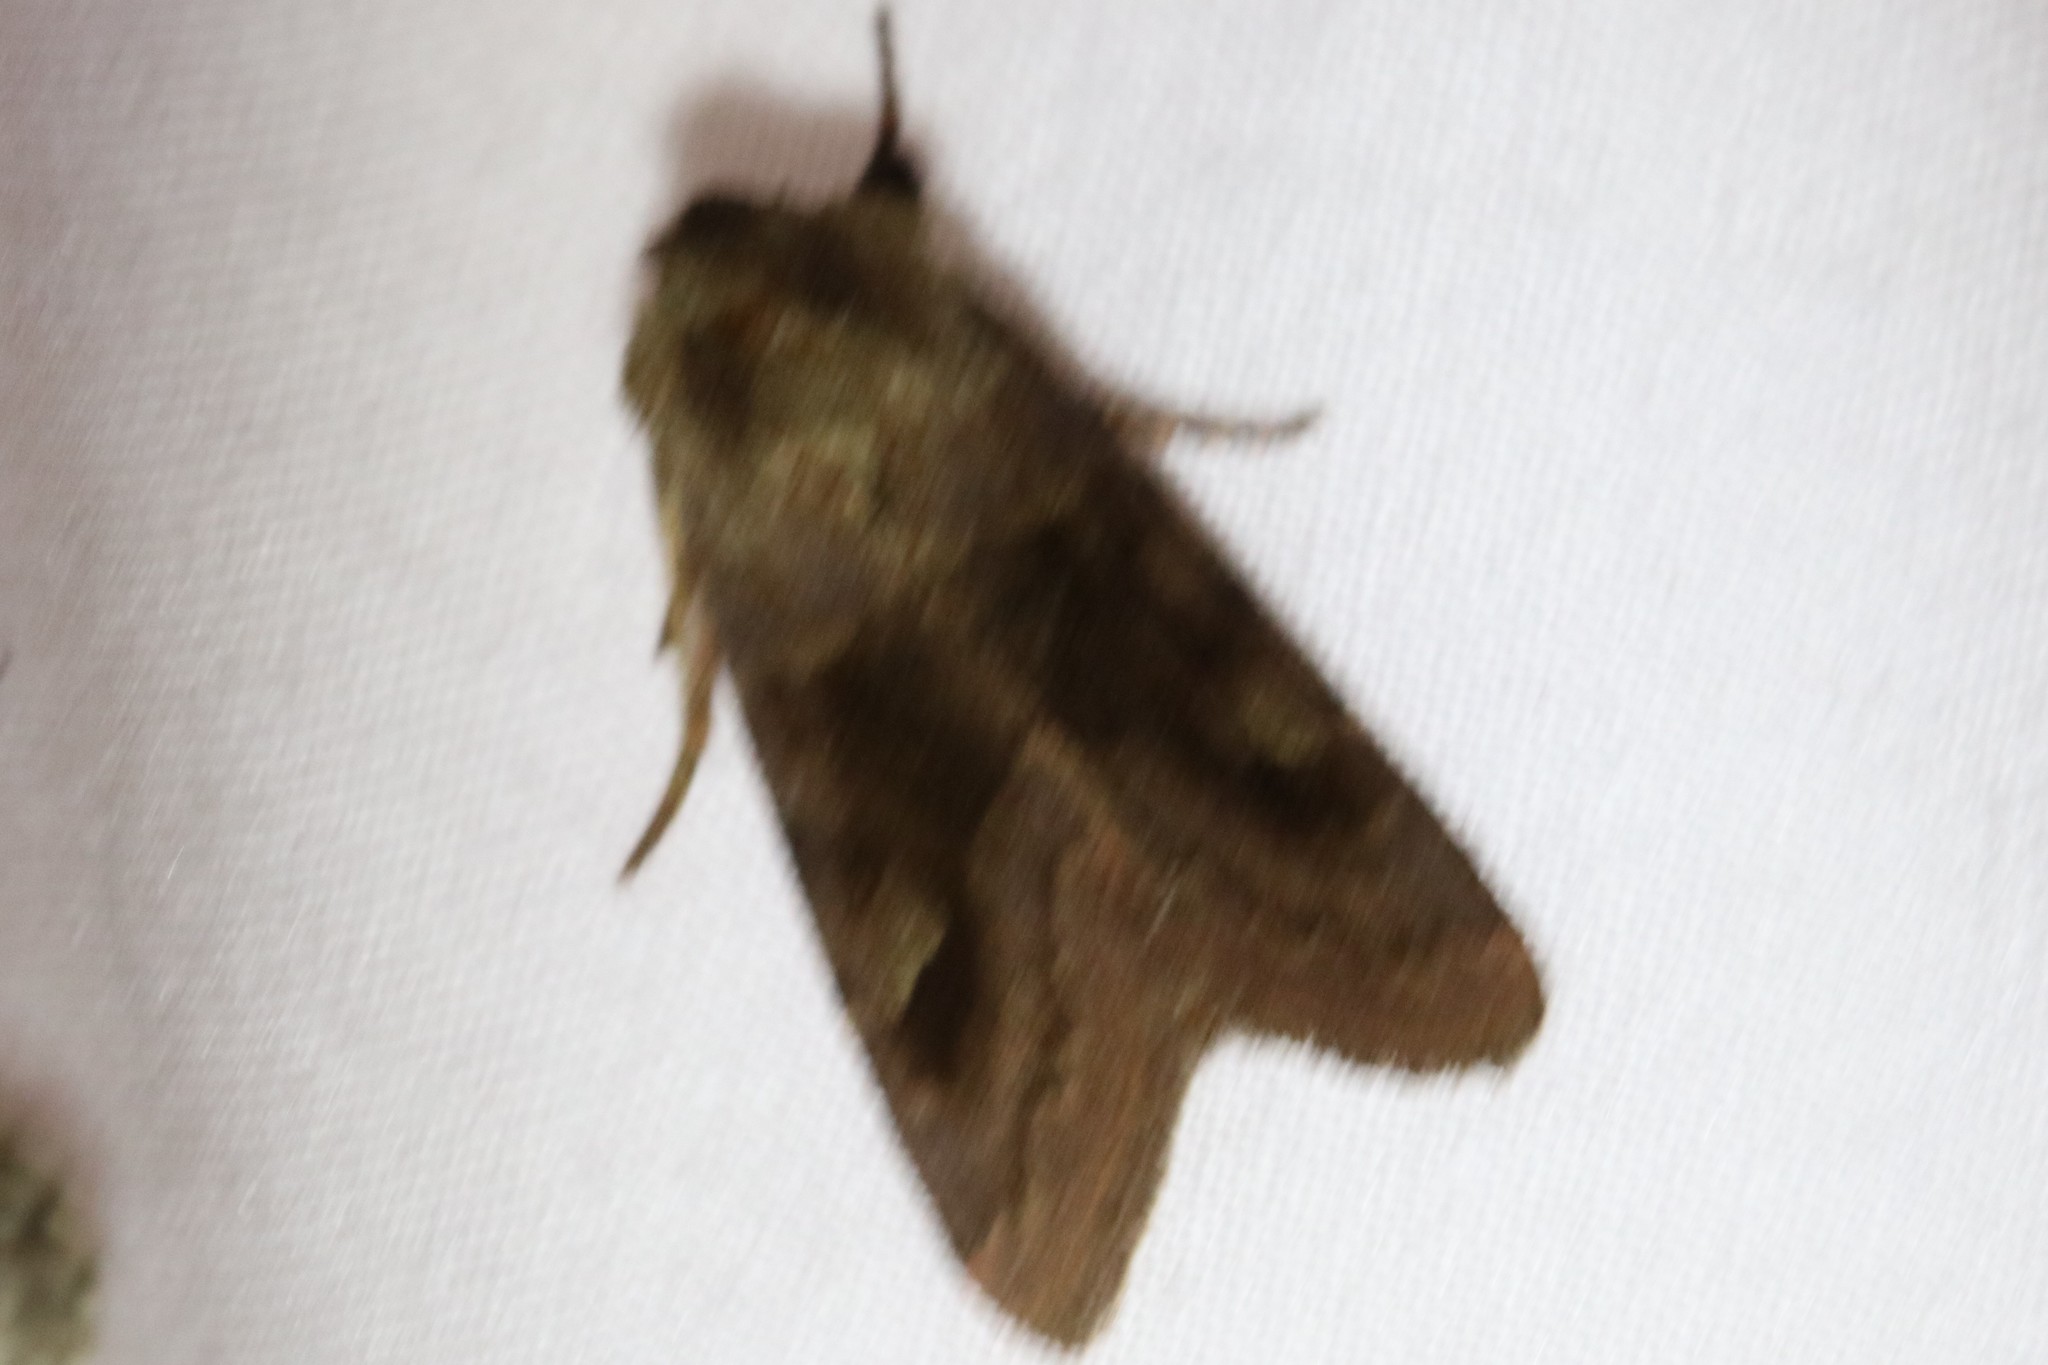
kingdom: Animalia
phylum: Arthropoda
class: Insecta
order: Lepidoptera
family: Noctuidae
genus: Nephelodes
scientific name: Nephelodes minians
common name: Bronzed cutworm
